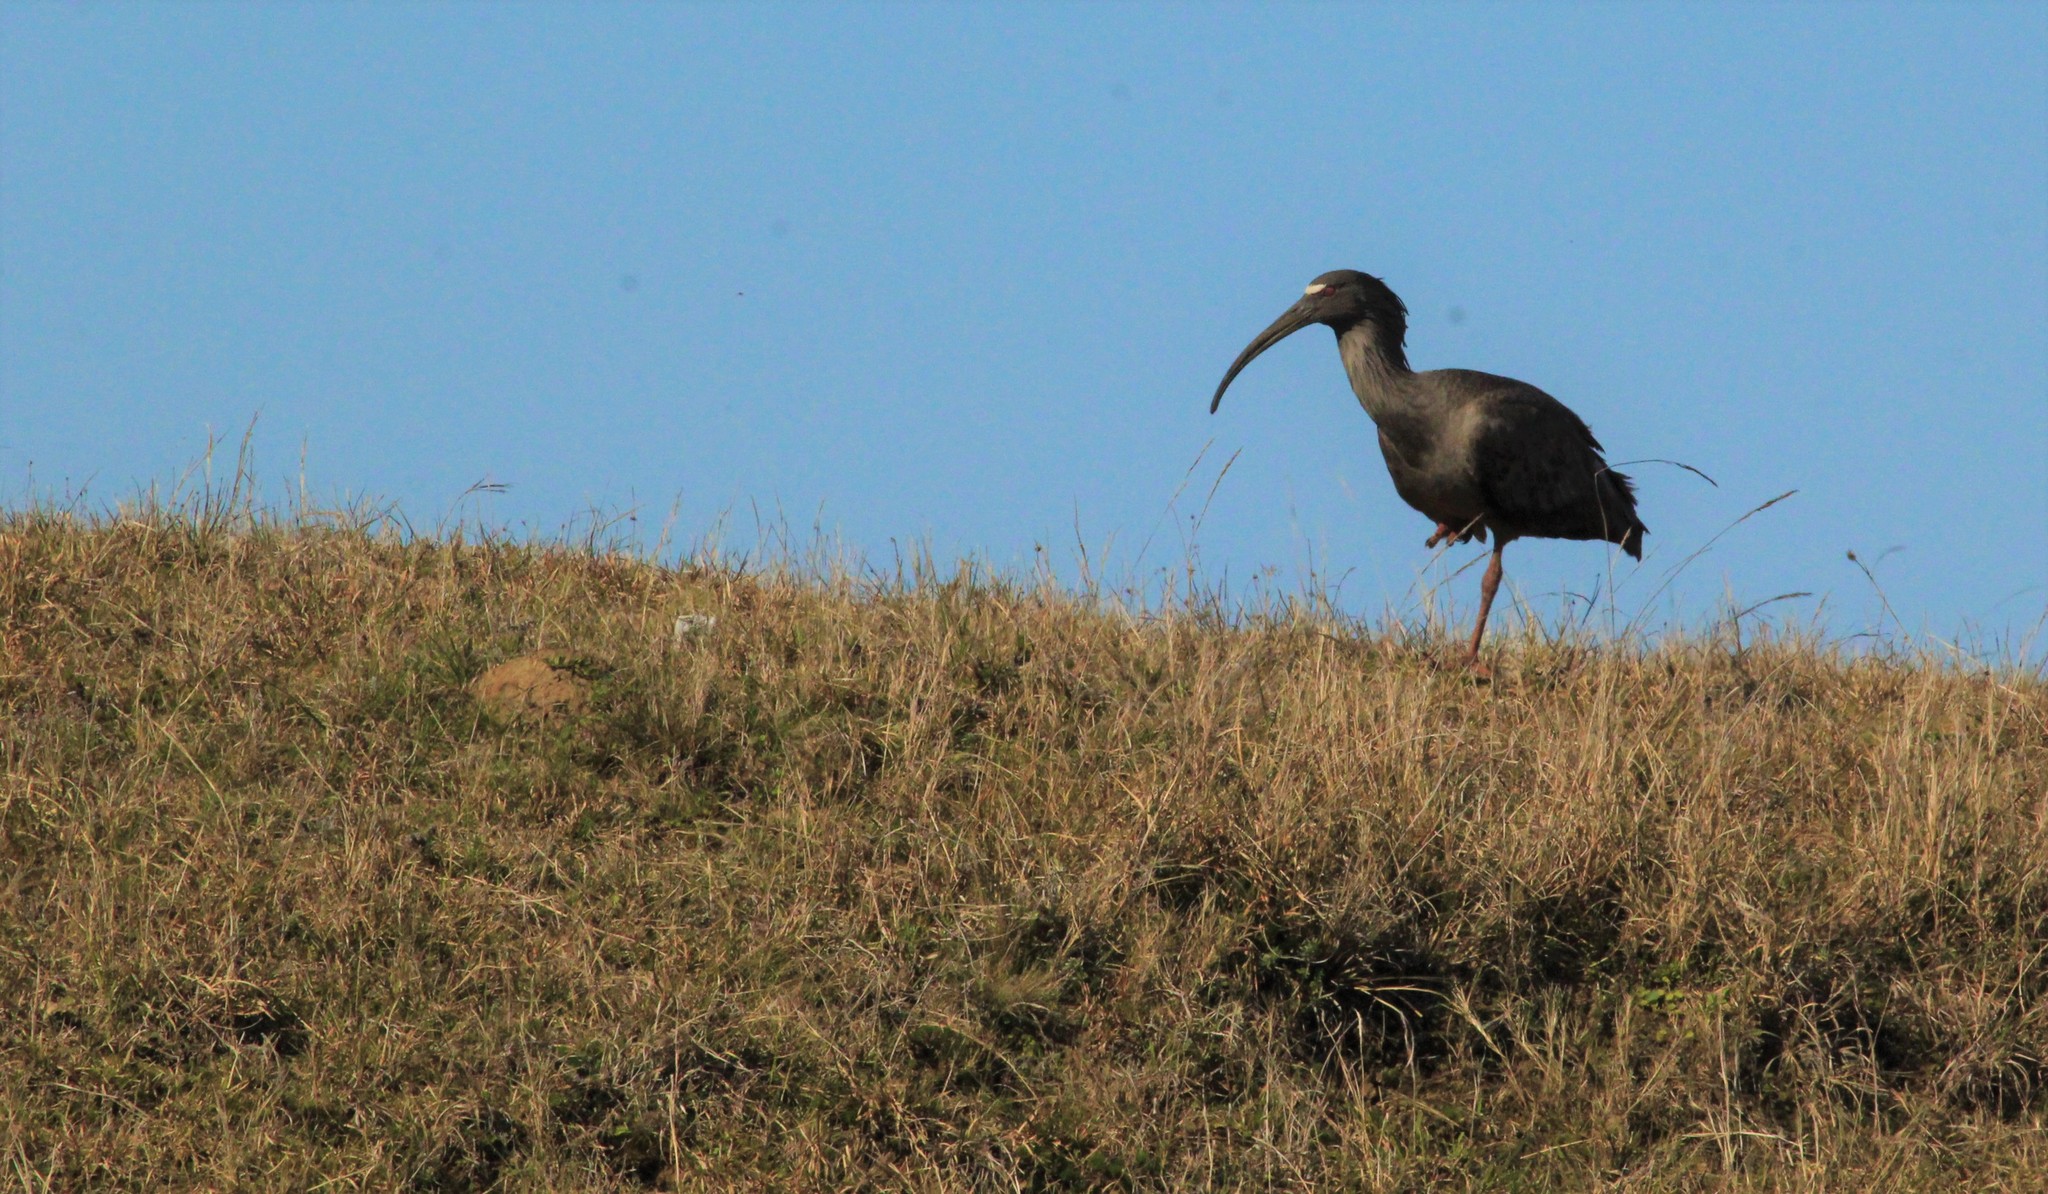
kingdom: Animalia
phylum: Chordata
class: Aves
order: Pelecaniformes
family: Threskiornithidae
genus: Theristicus
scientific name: Theristicus caerulescens
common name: Plumbeous ibis
